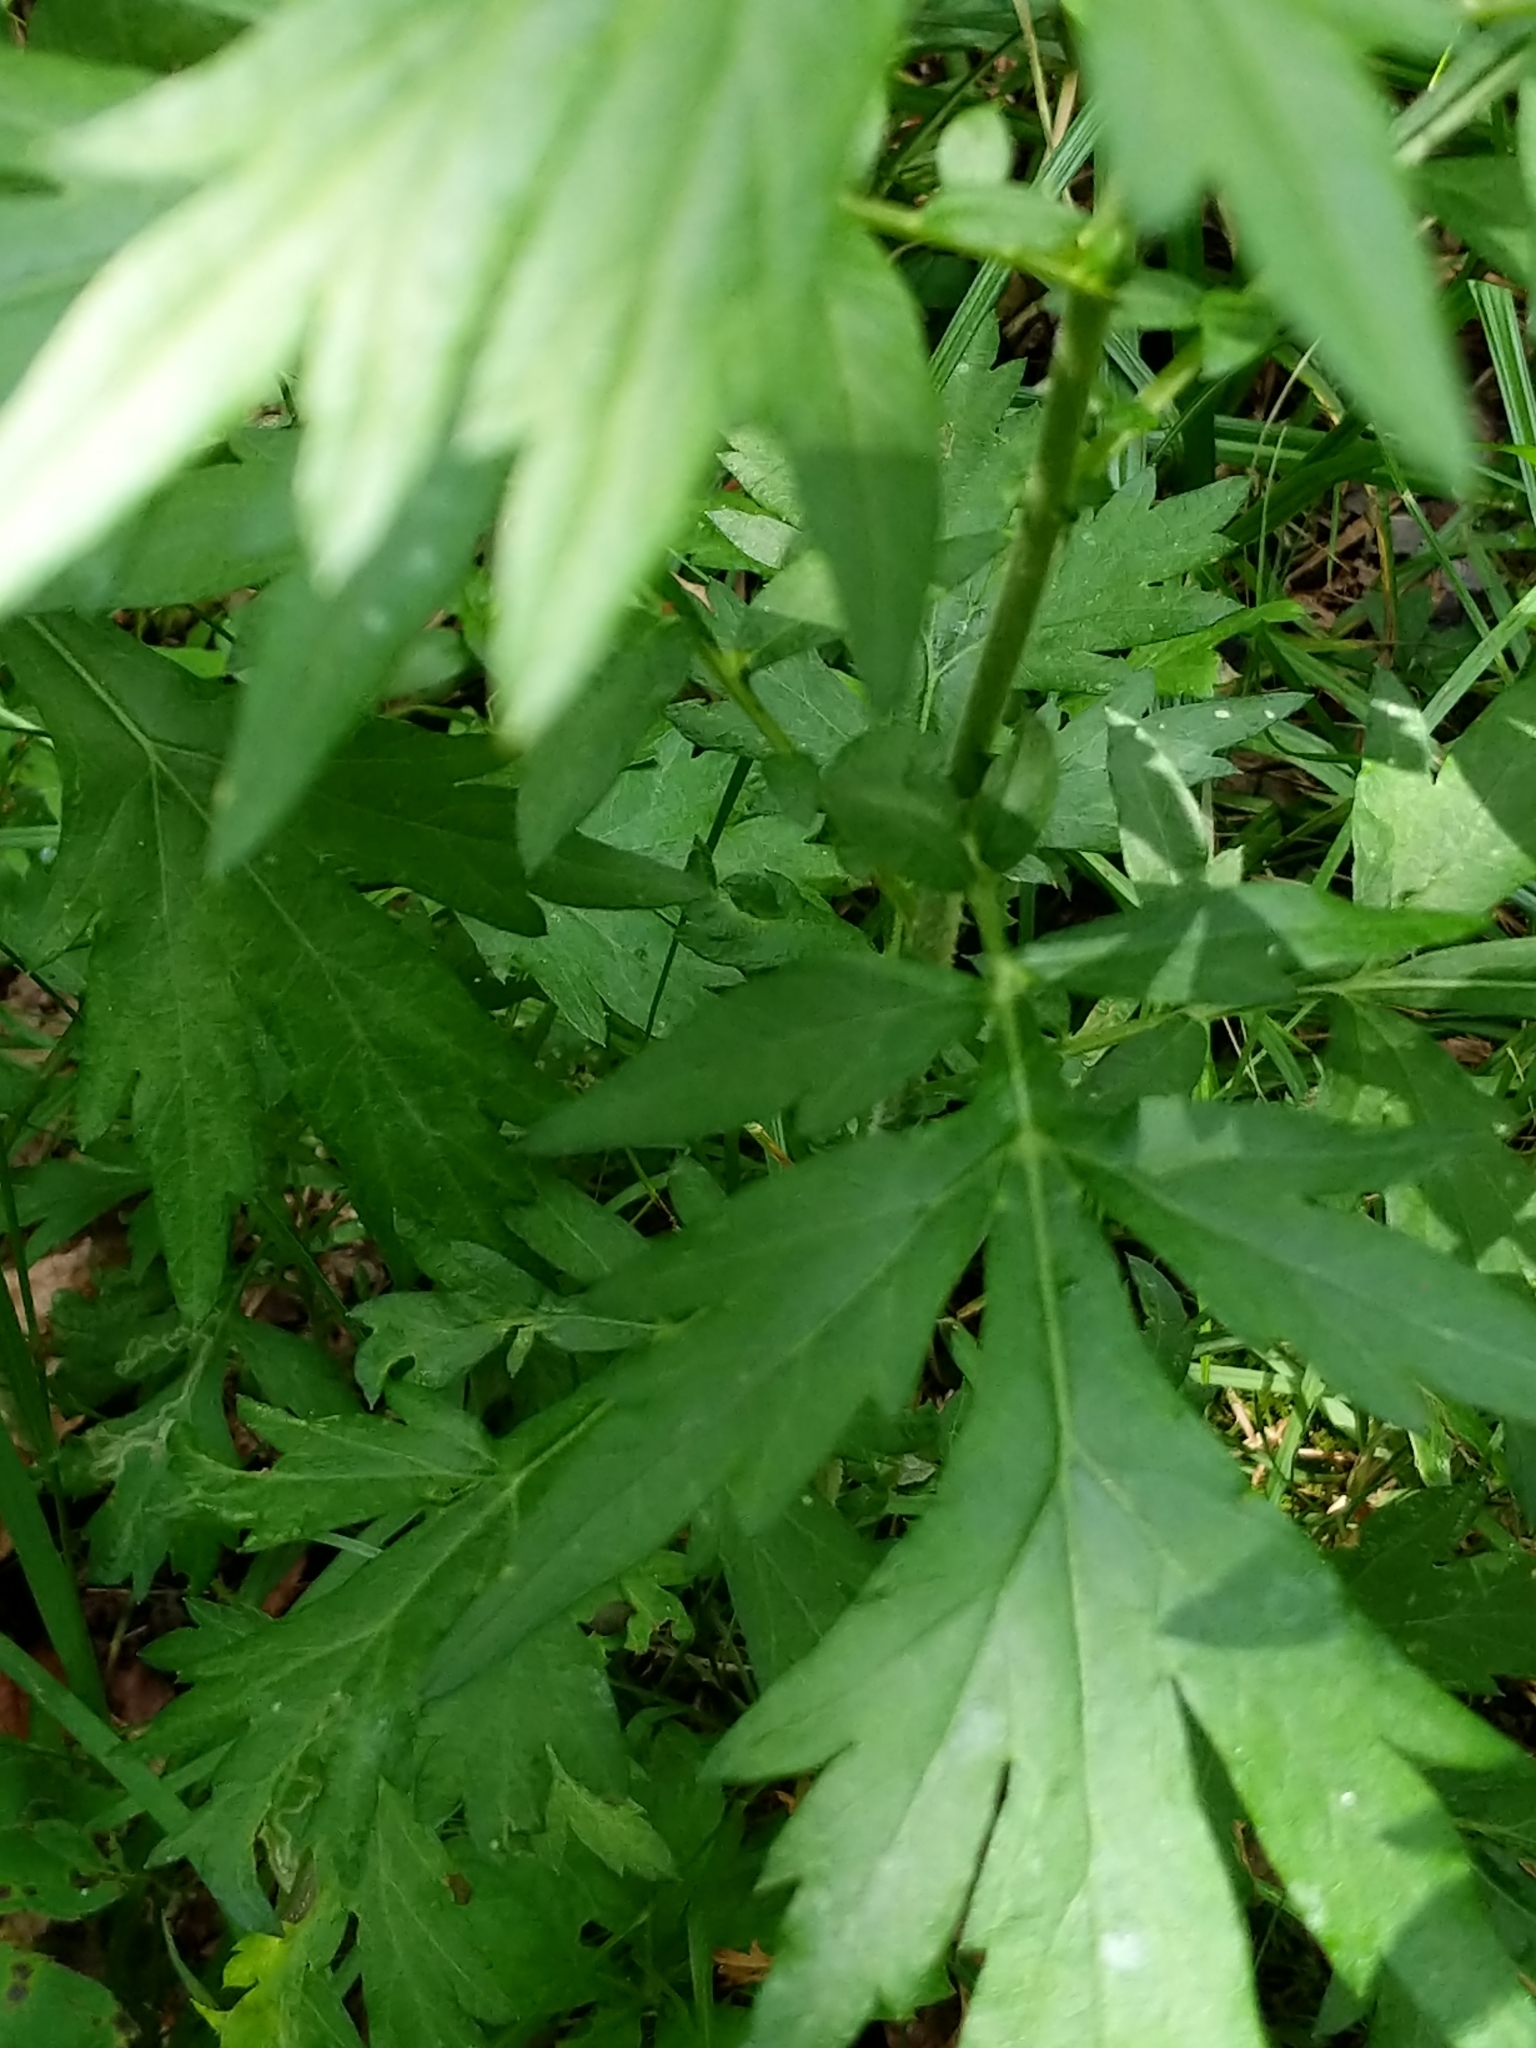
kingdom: Plantae
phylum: Tracheophyta
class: Magnoliopsida
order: Asterales
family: Asteraceae
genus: Artemisia
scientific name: Artemisia vulgaris
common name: Mugwort
